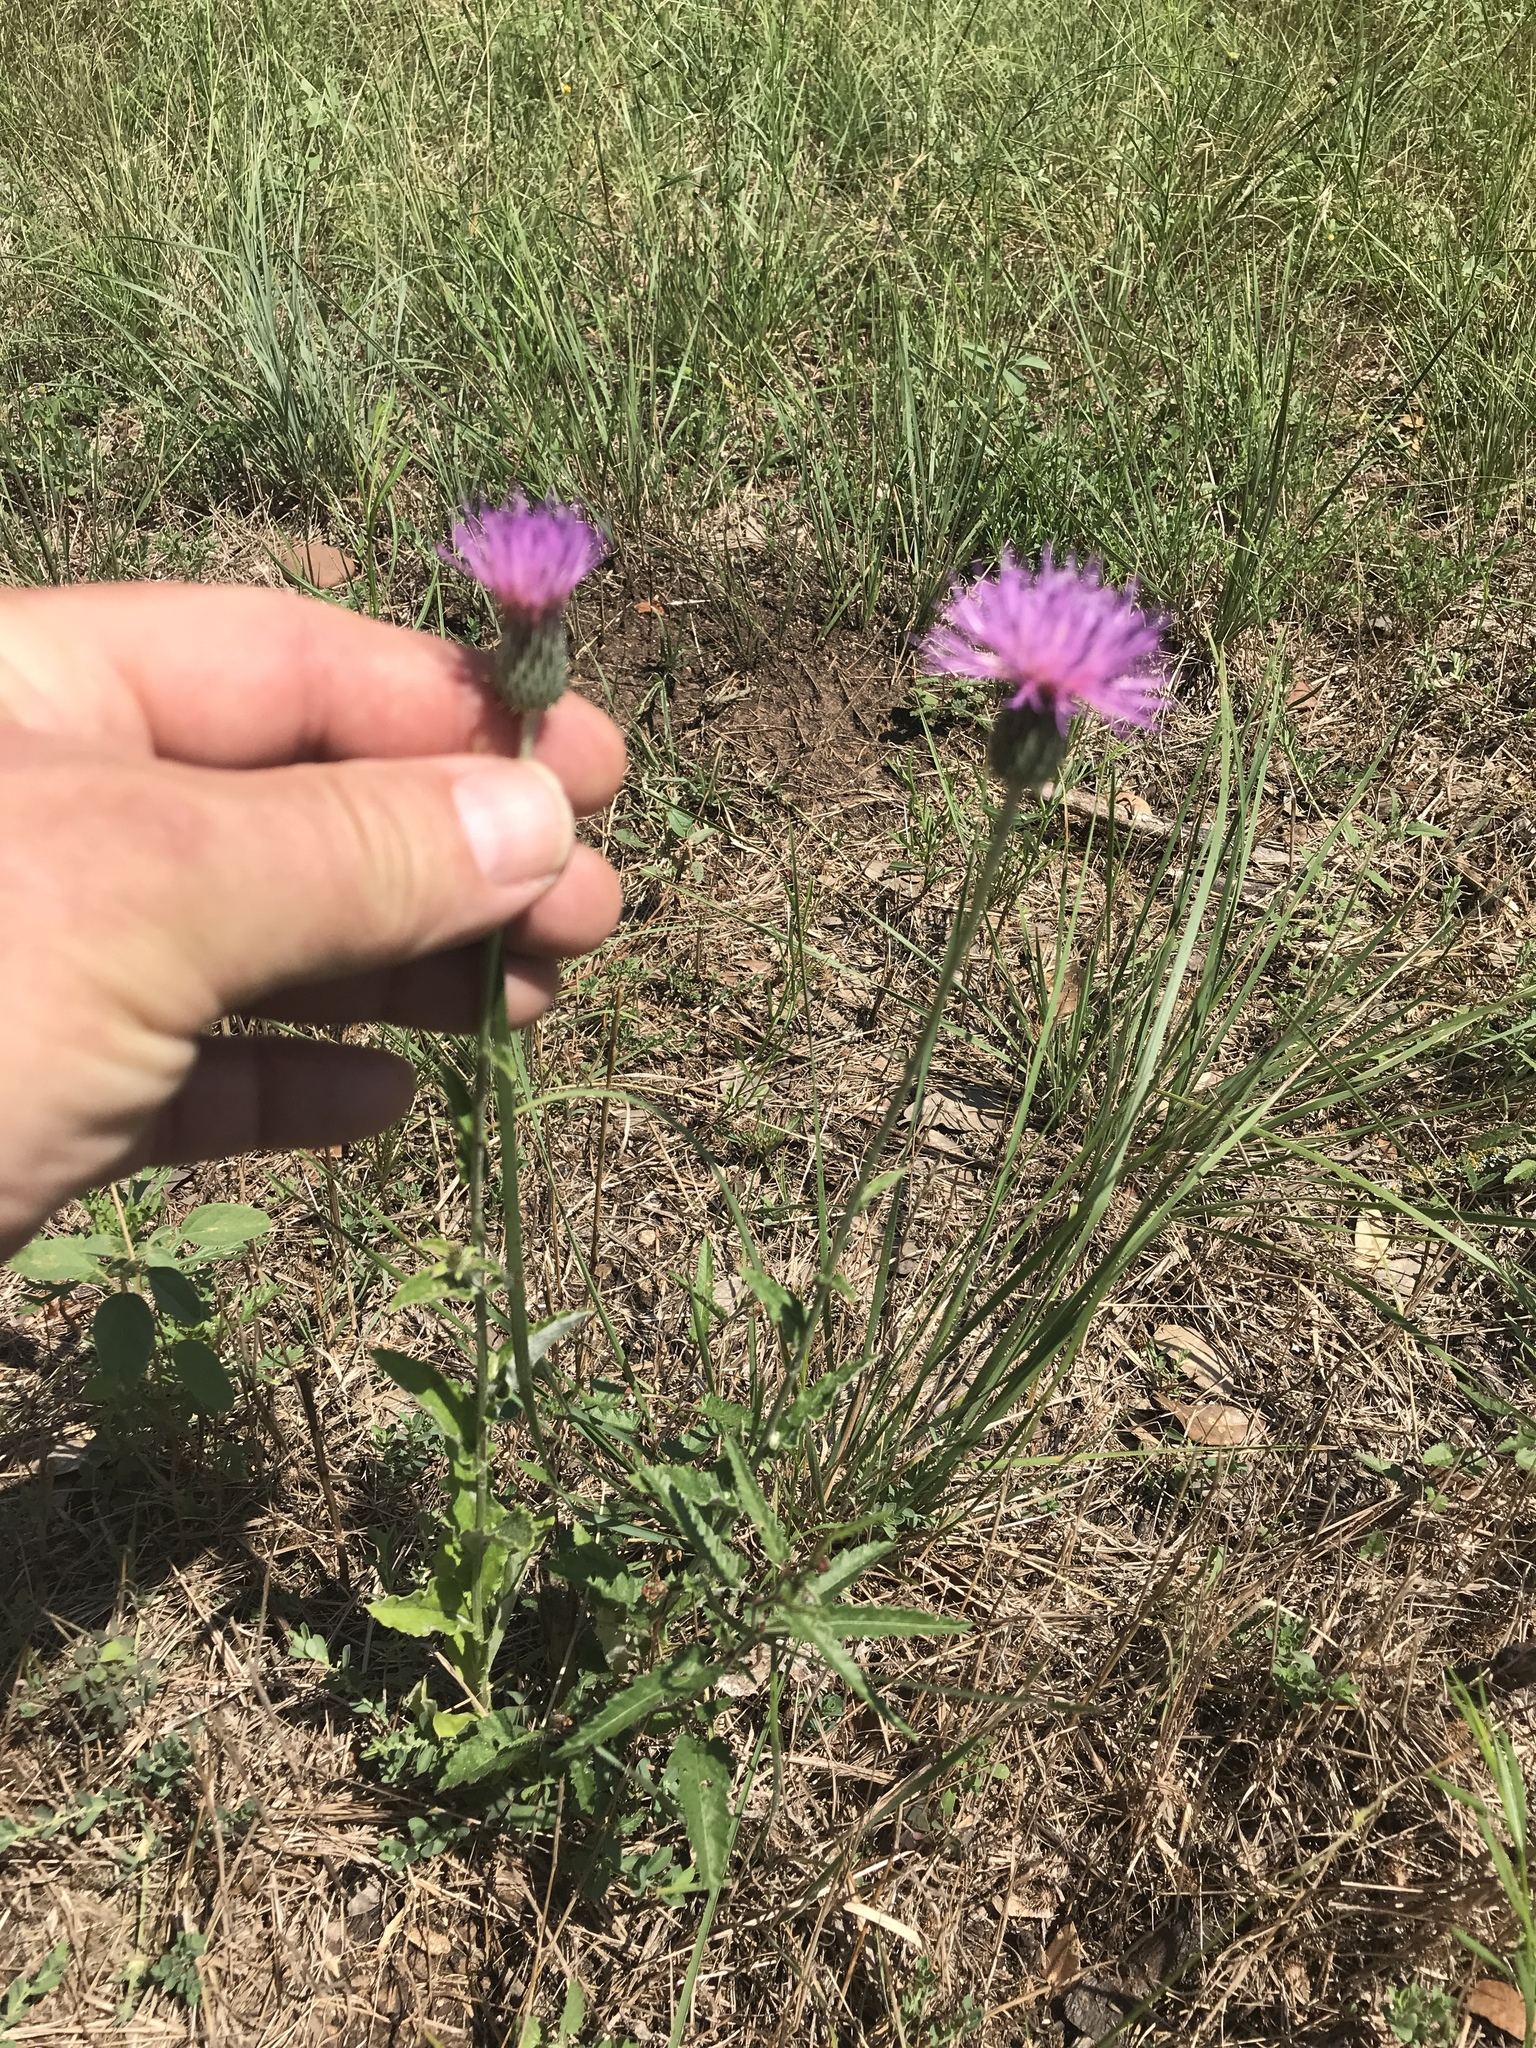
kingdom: Plantae
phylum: Tracheophyta
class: Magnoliopsida
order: Asterales
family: Asteraceae
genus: Cirsium
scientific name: Cirsium texanum
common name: Texas purple thistle
